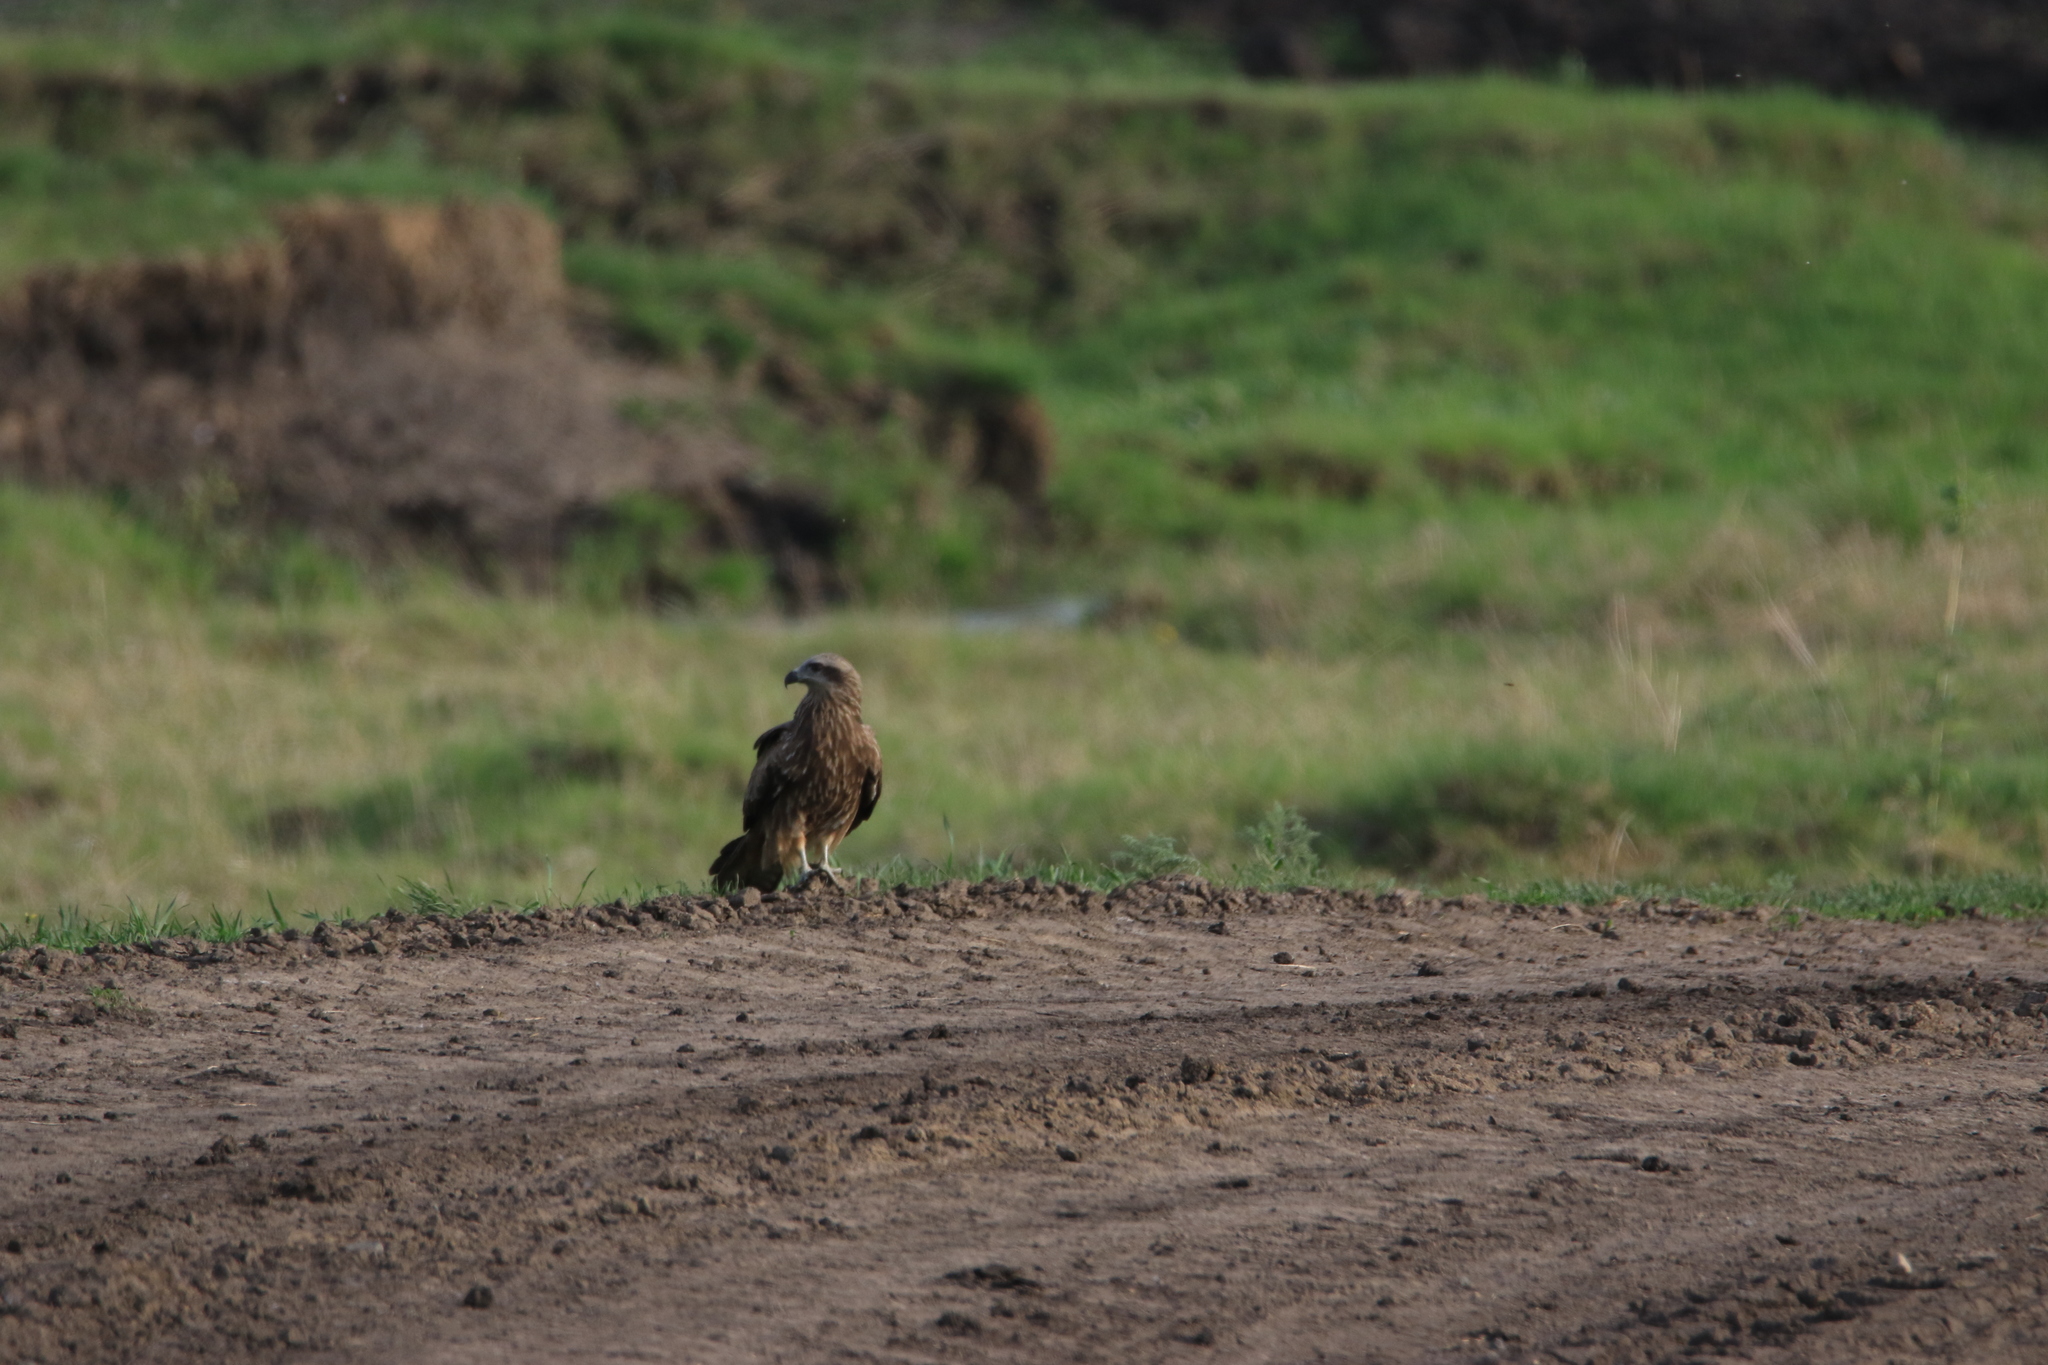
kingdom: Animalia
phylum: Chordata
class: Aves
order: Accipitriformes
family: Accipitridae
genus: Milvus
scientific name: Milvus migrans
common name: Black kite
